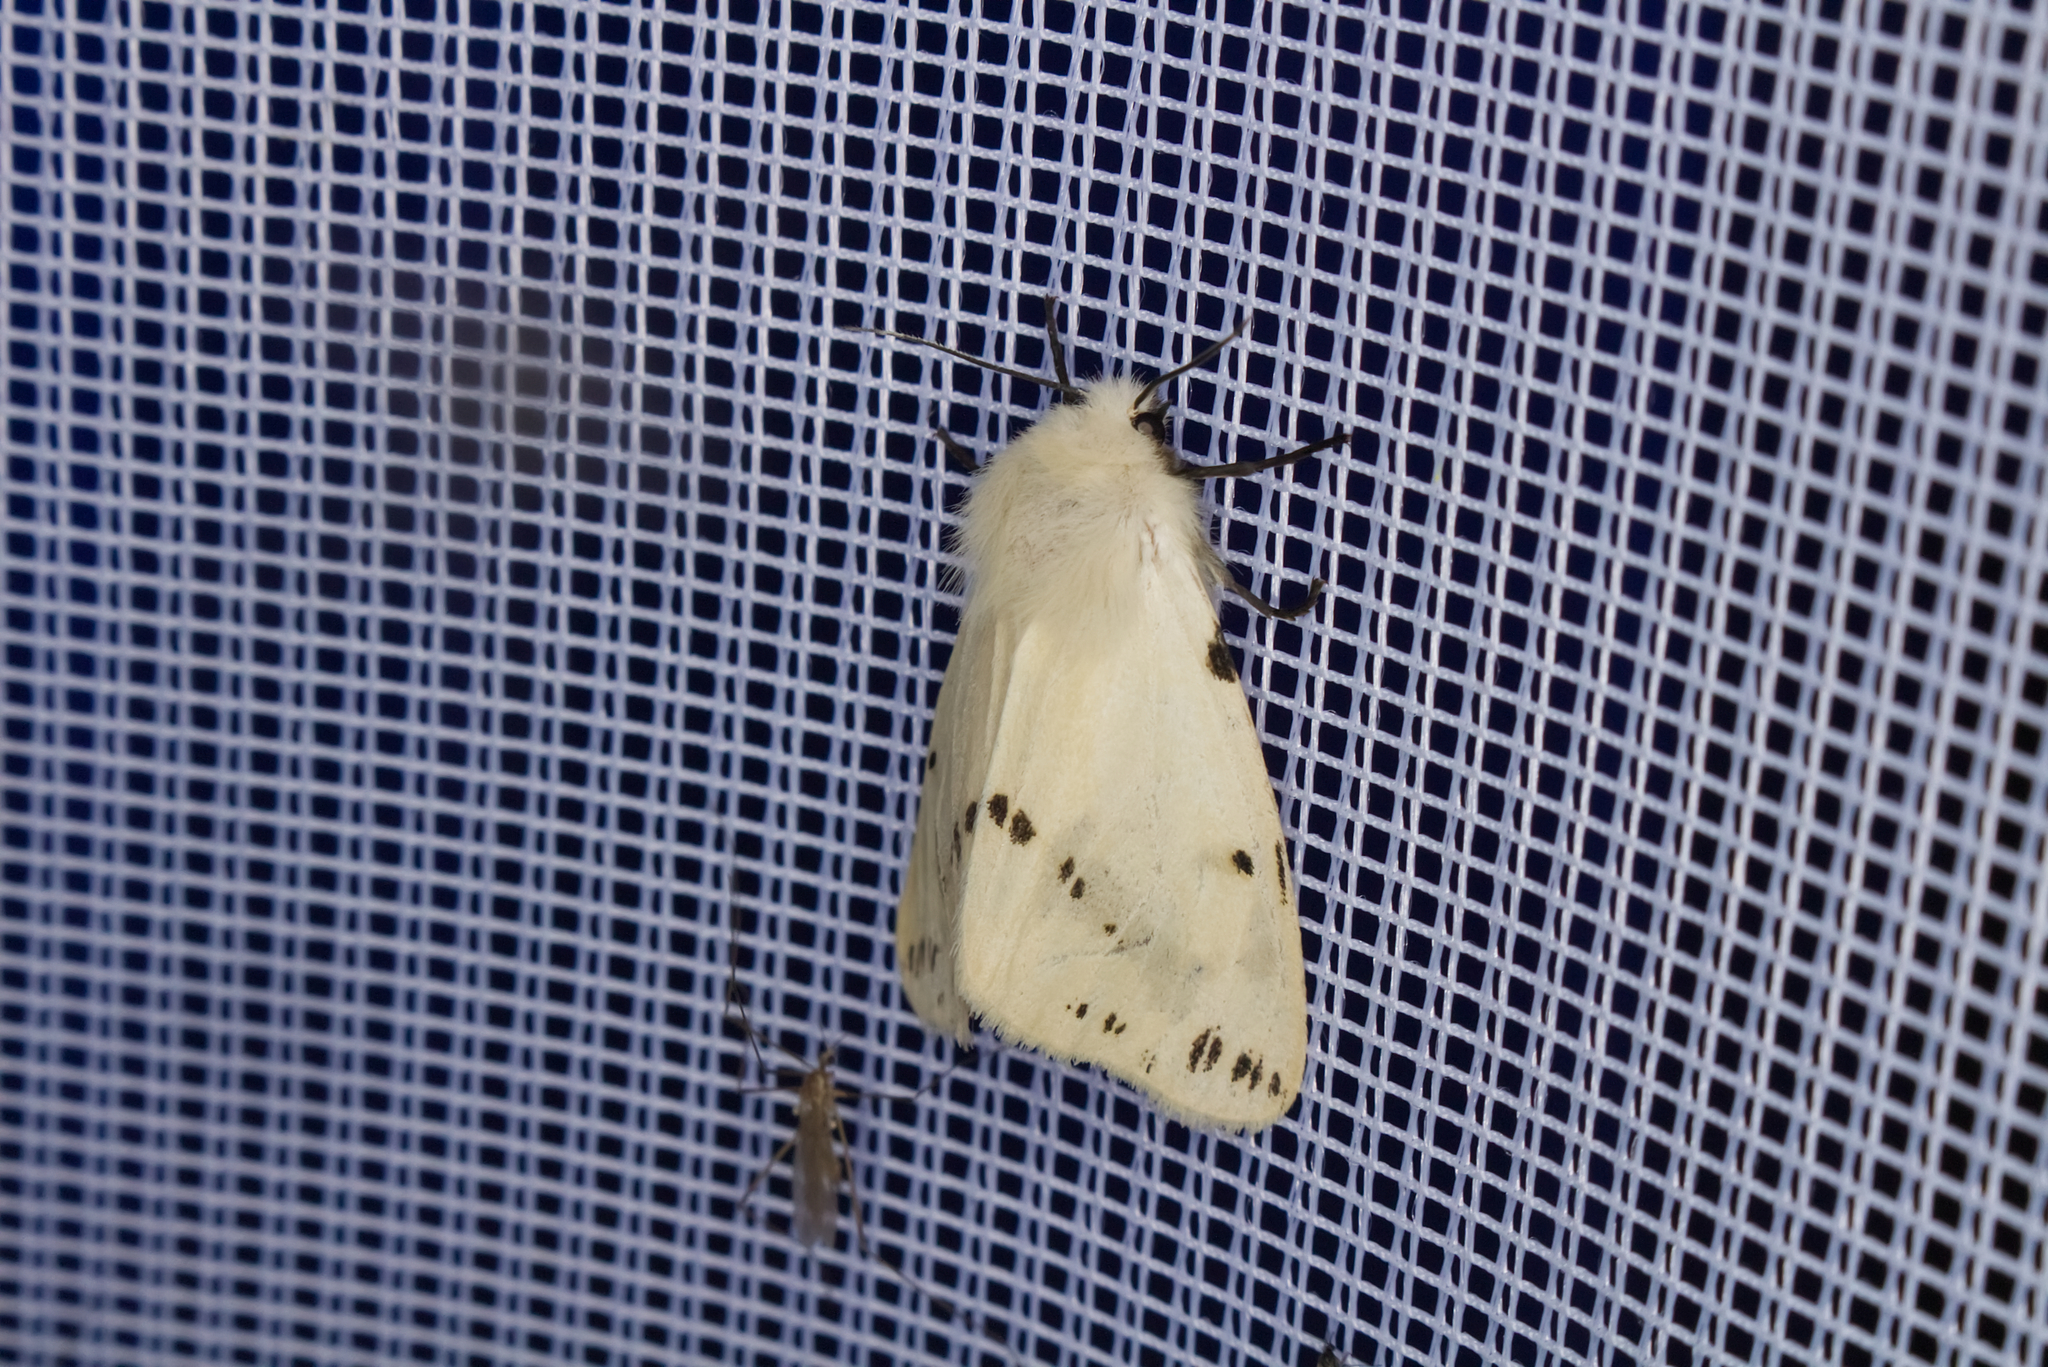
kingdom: Animalia
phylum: Arthropoda
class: Insecta
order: Lepidoptera
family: Erebidae
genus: Spilarctia
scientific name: Spilarctia lutea
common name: Buff ermine
